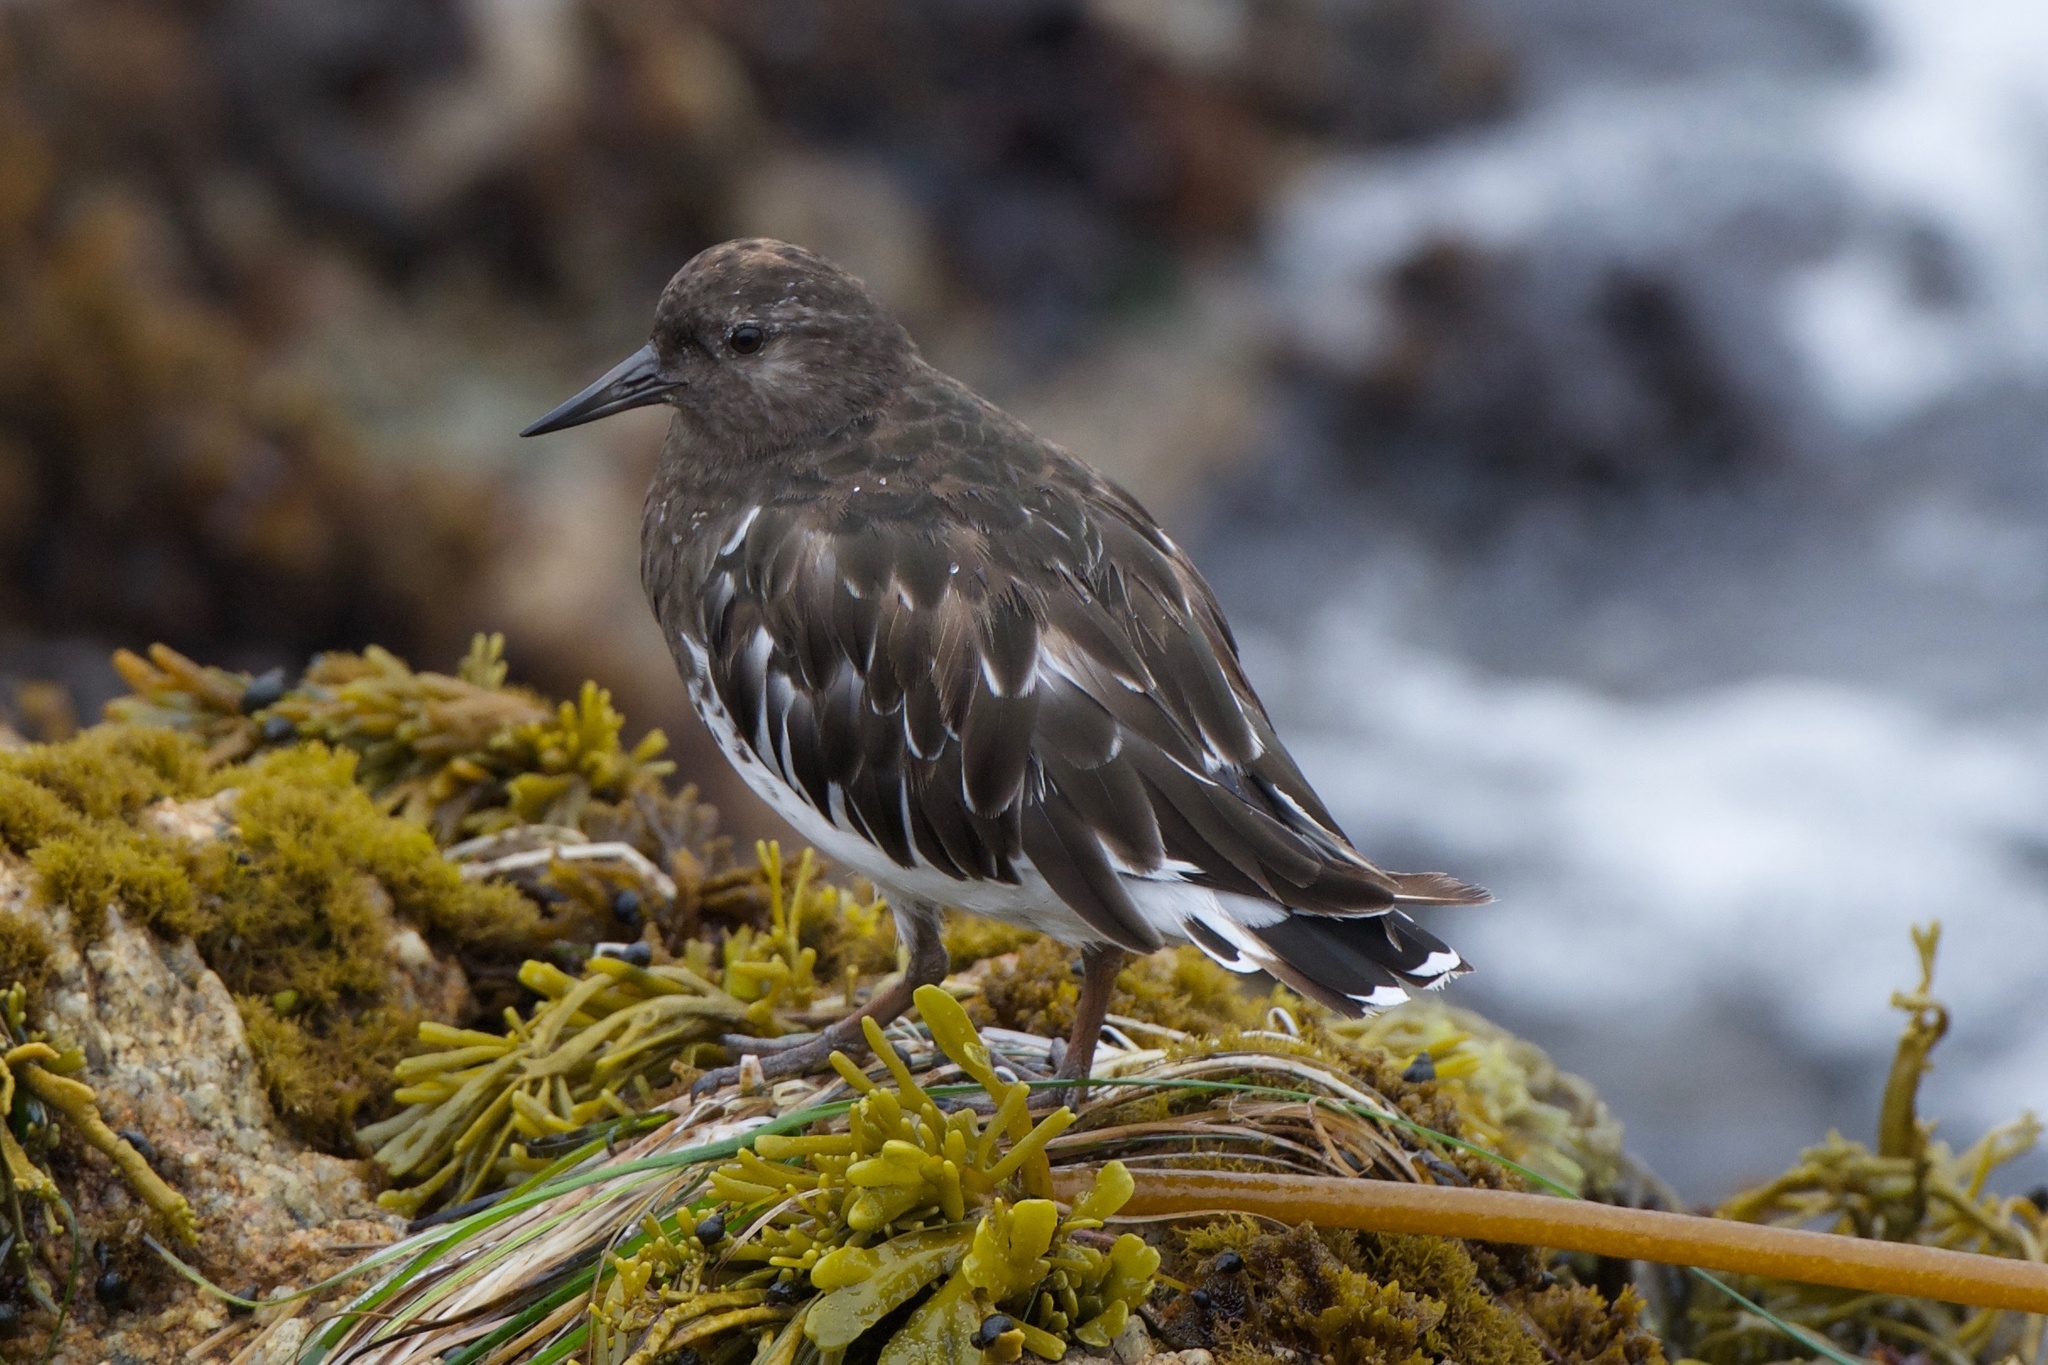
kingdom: Animalia
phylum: Chordata
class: Aves
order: Charadriiformes
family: Scolopacidae
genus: Arenaria
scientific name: Arenaria melanocephala
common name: Black turnstone
